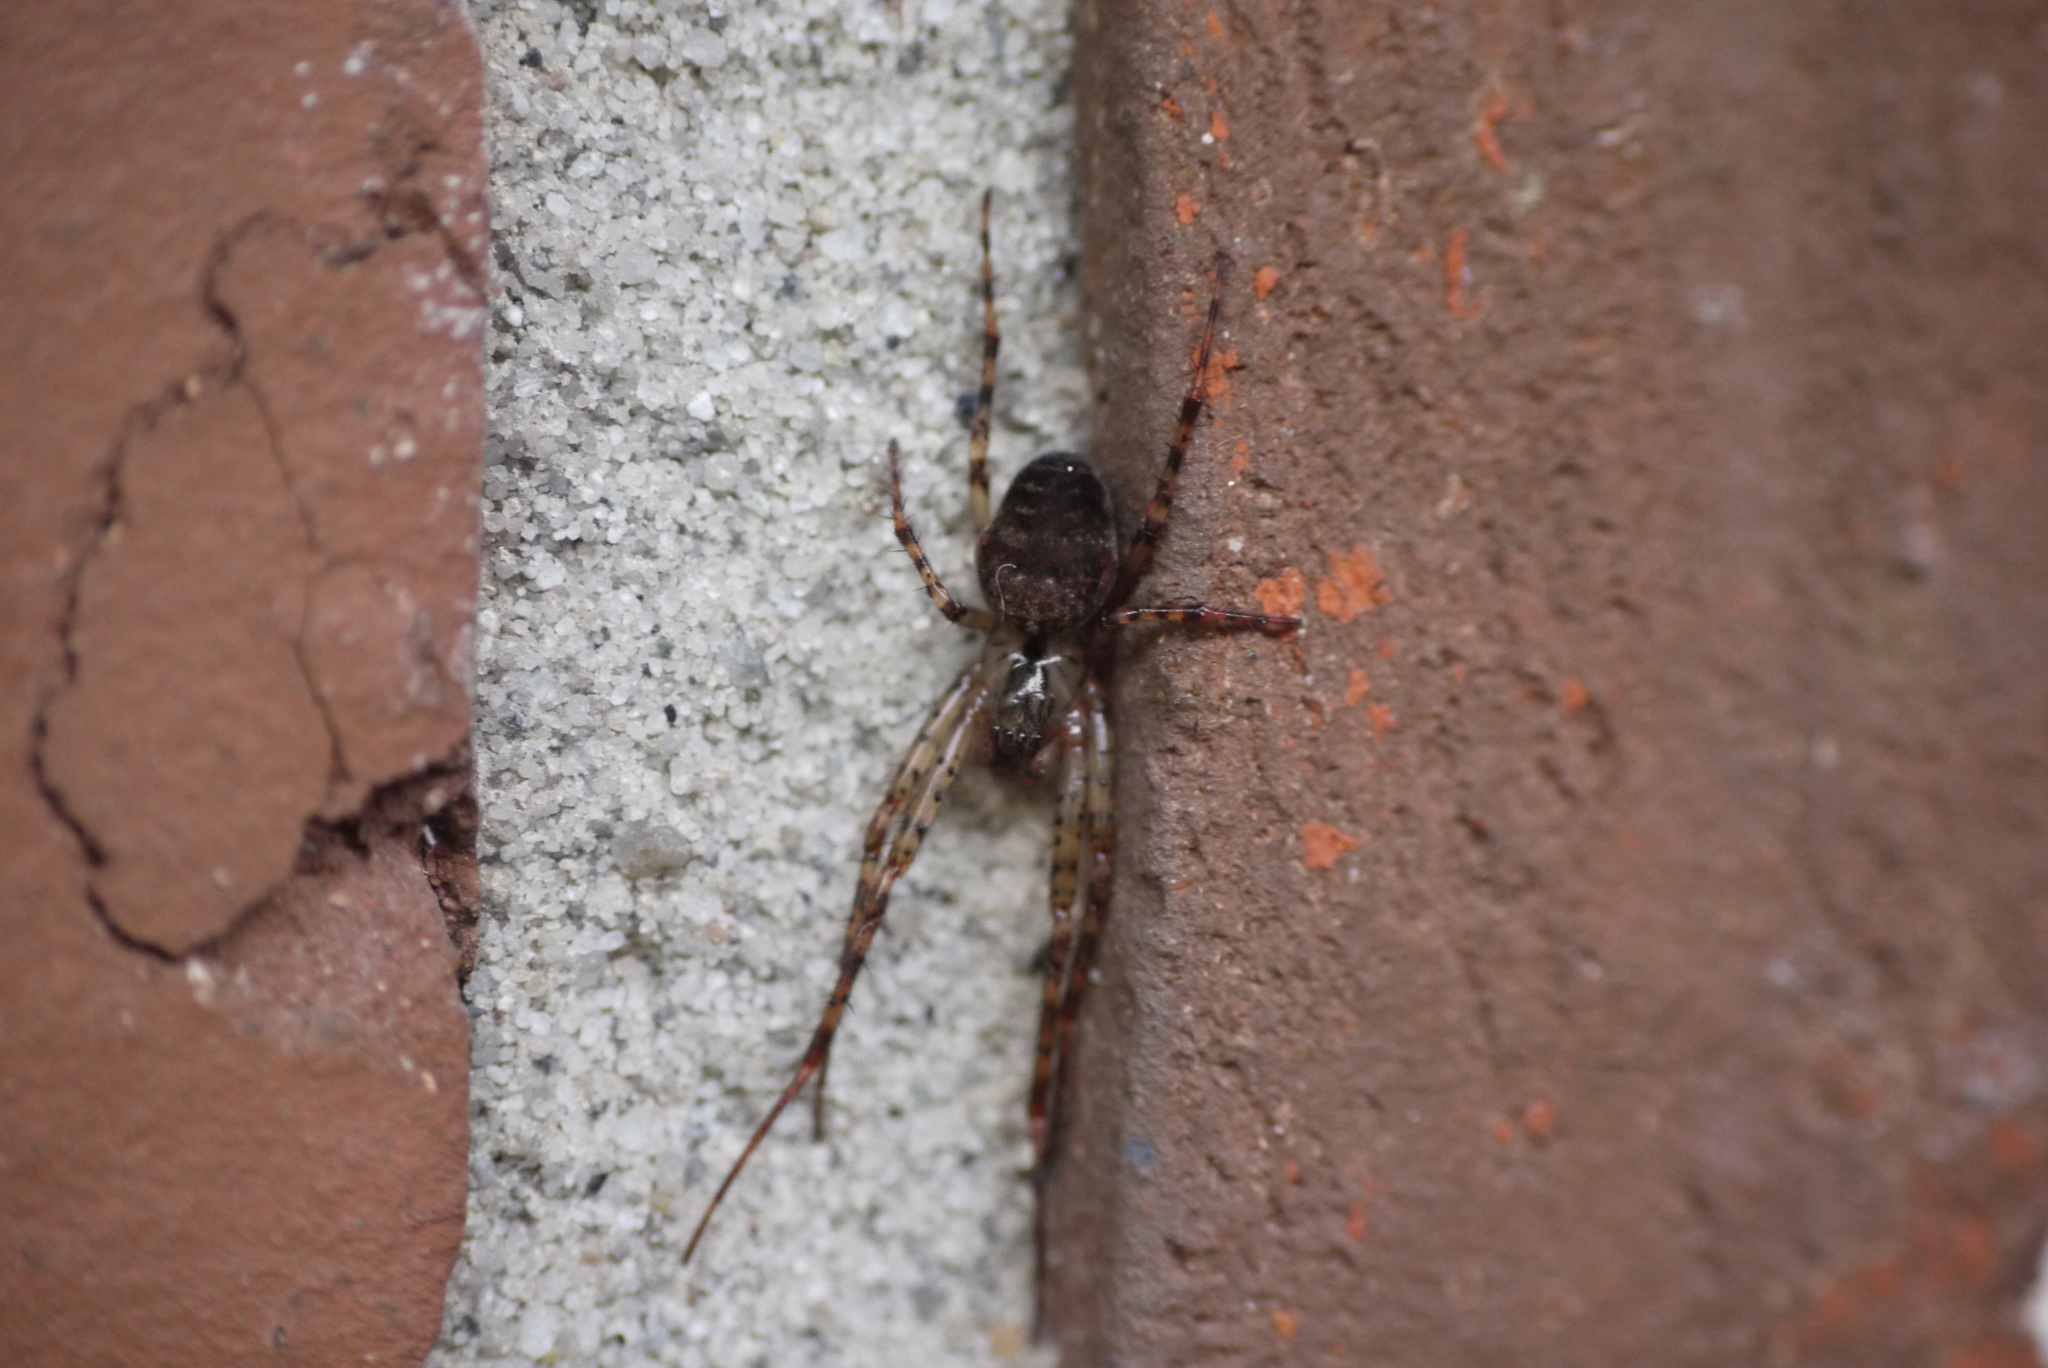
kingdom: Animalia
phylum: Arthropoda
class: Arachnida
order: Araneae
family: Tetragnathidae
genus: Metellina
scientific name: Metellina merianae
